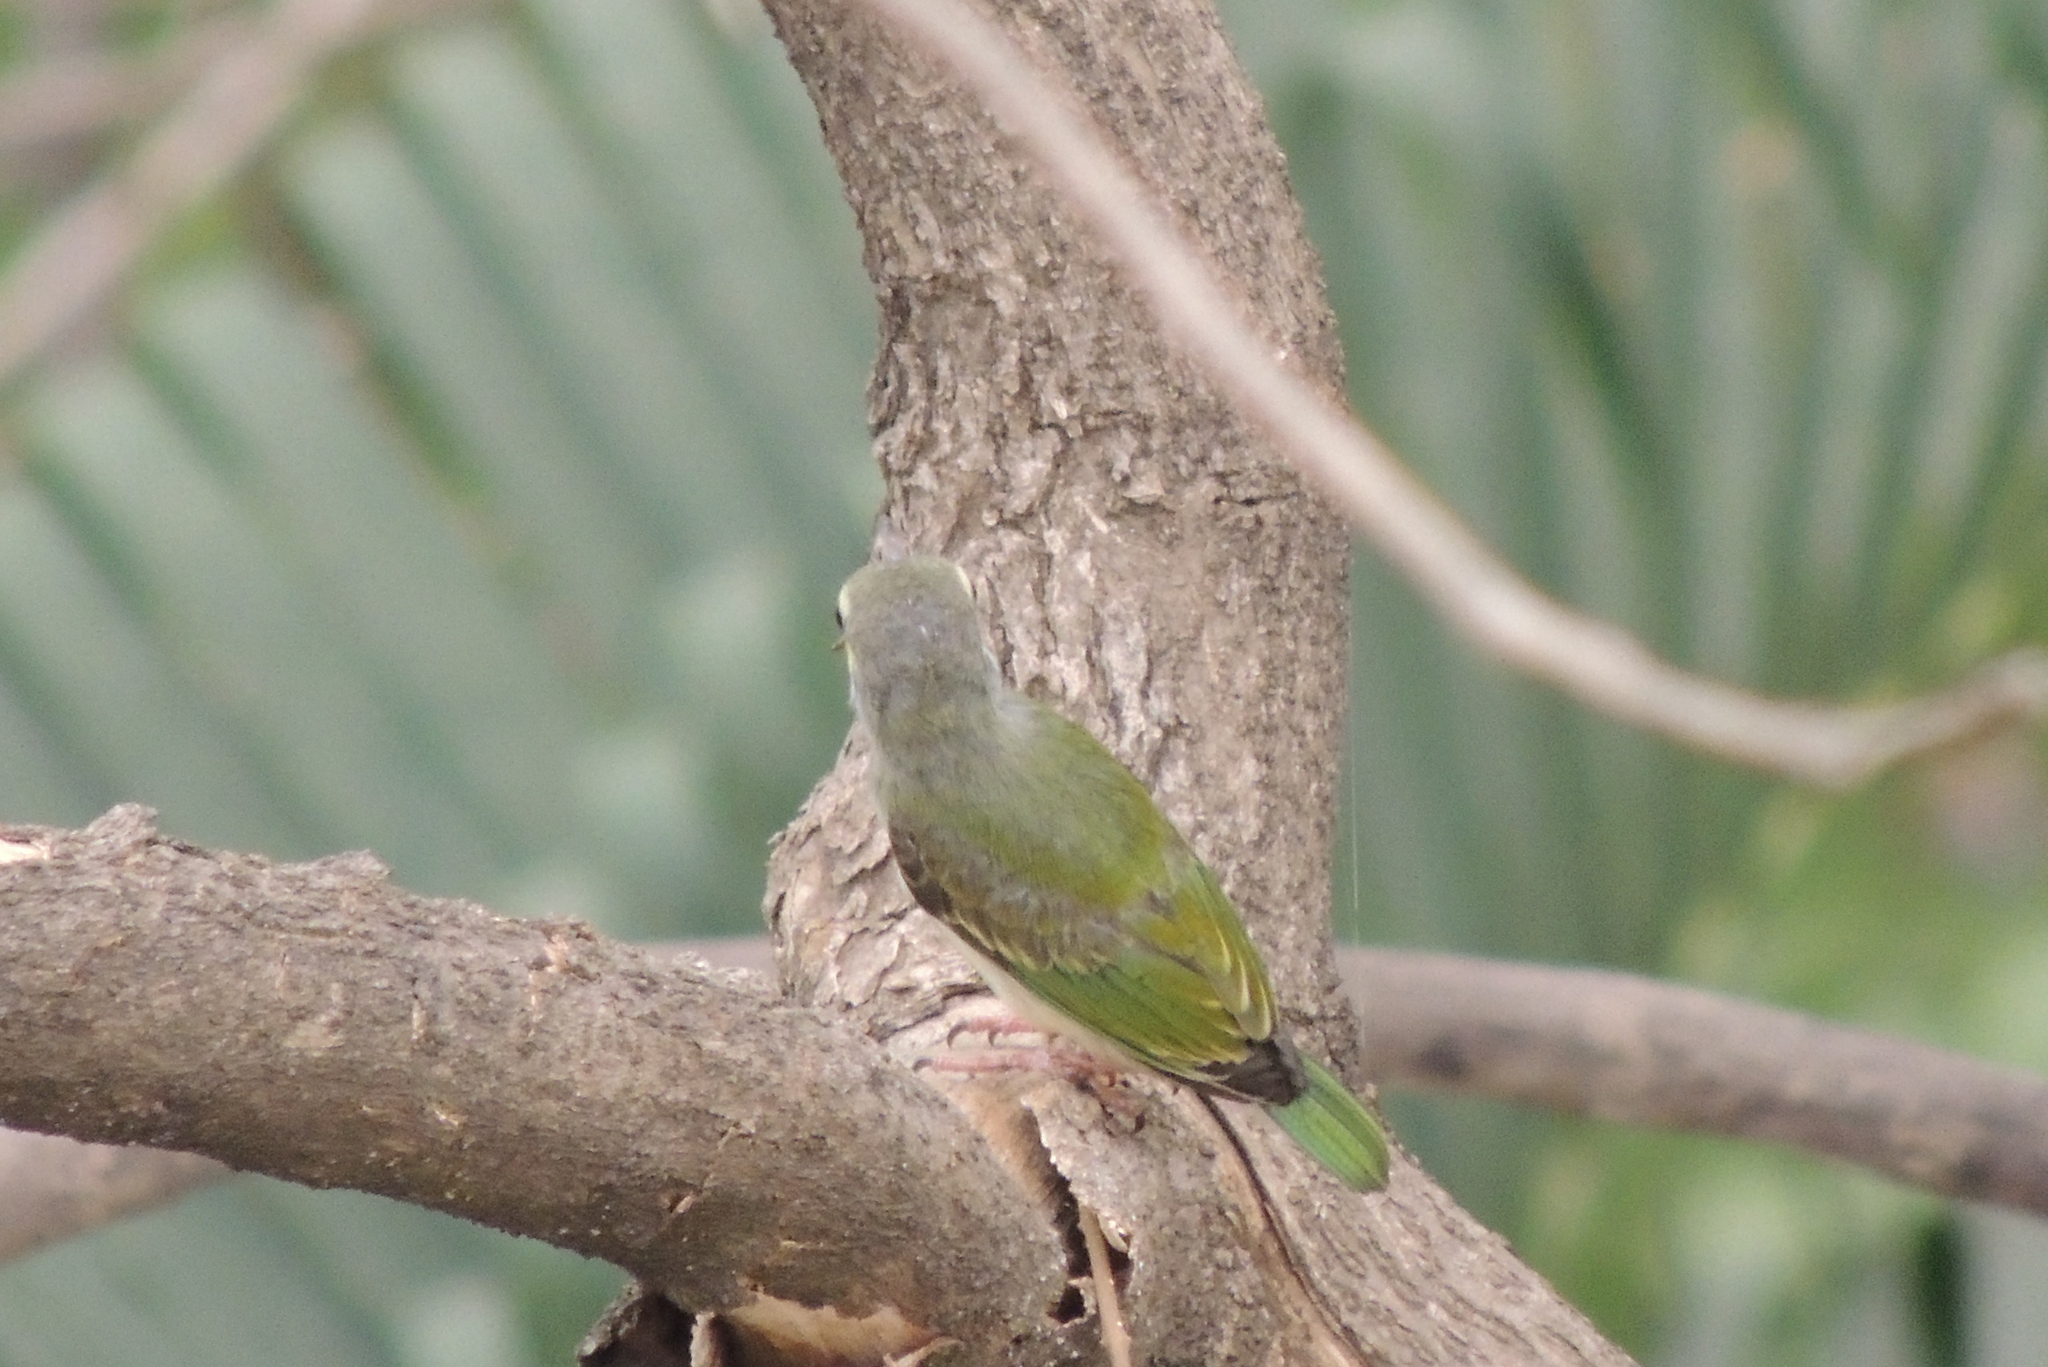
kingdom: Animalia
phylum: Chordata
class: Aves
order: Piciformes
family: Megalaimidae
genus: Psilopogon
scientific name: Psilopogon haemacephalus
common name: Coppersmith barbet
